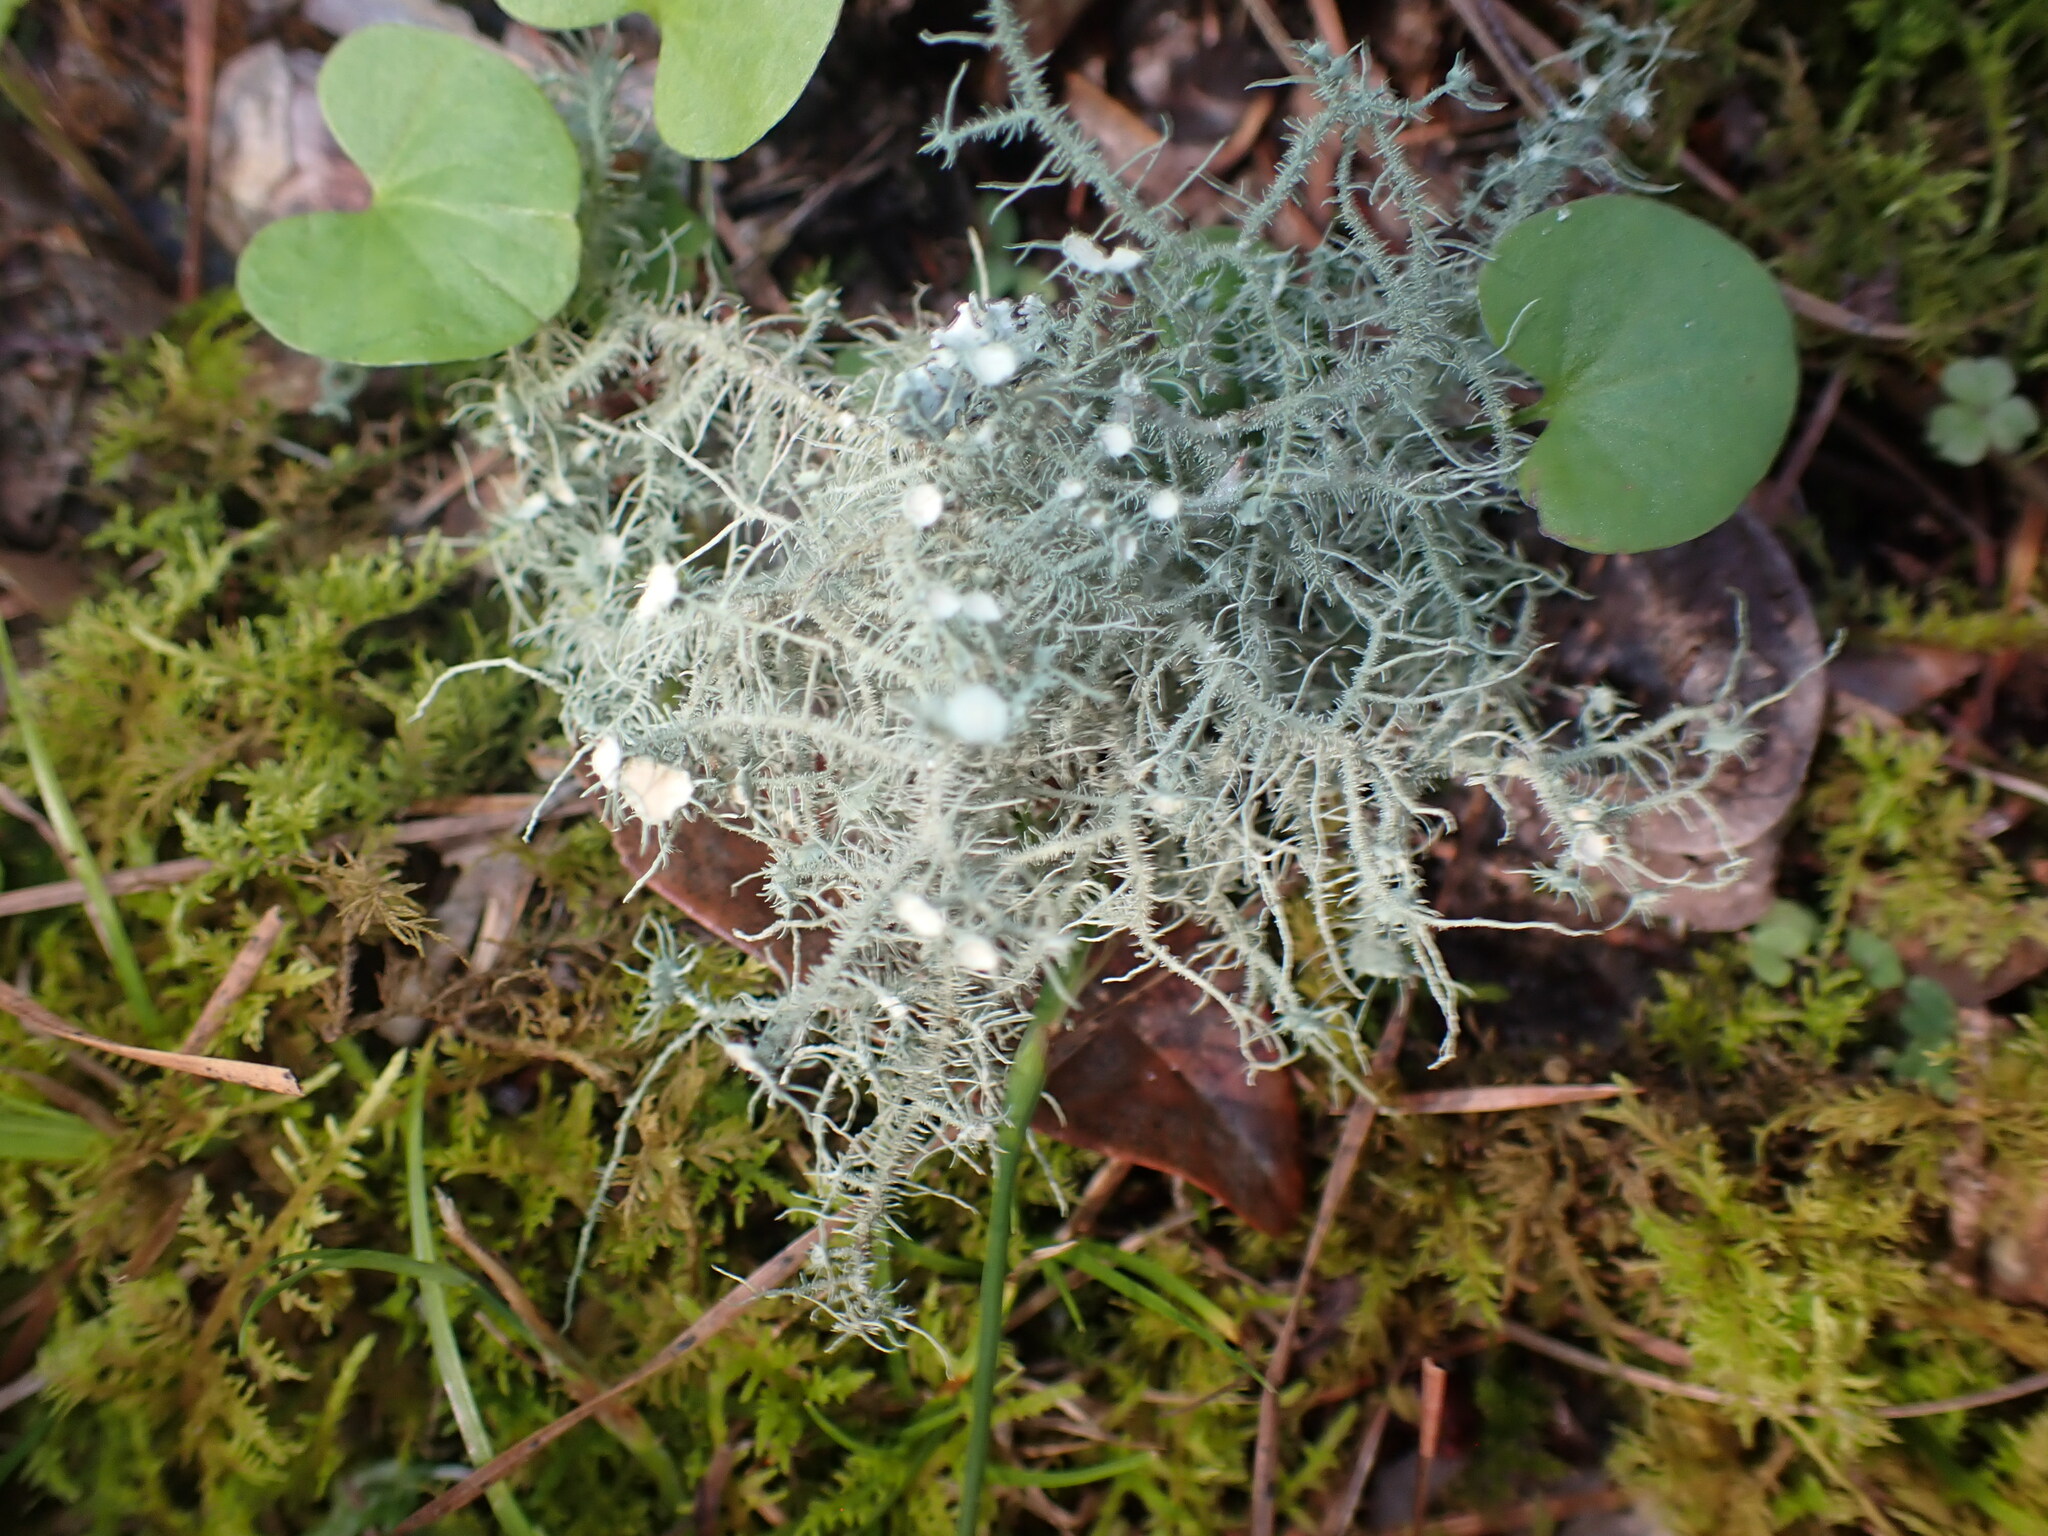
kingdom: Fungi
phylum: Ascomycota
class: Lecanoromycetes
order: Lecanorales
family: Parmeliaceae
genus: Usnea
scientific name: Usnea strigosa
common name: Bushy beard lichen
